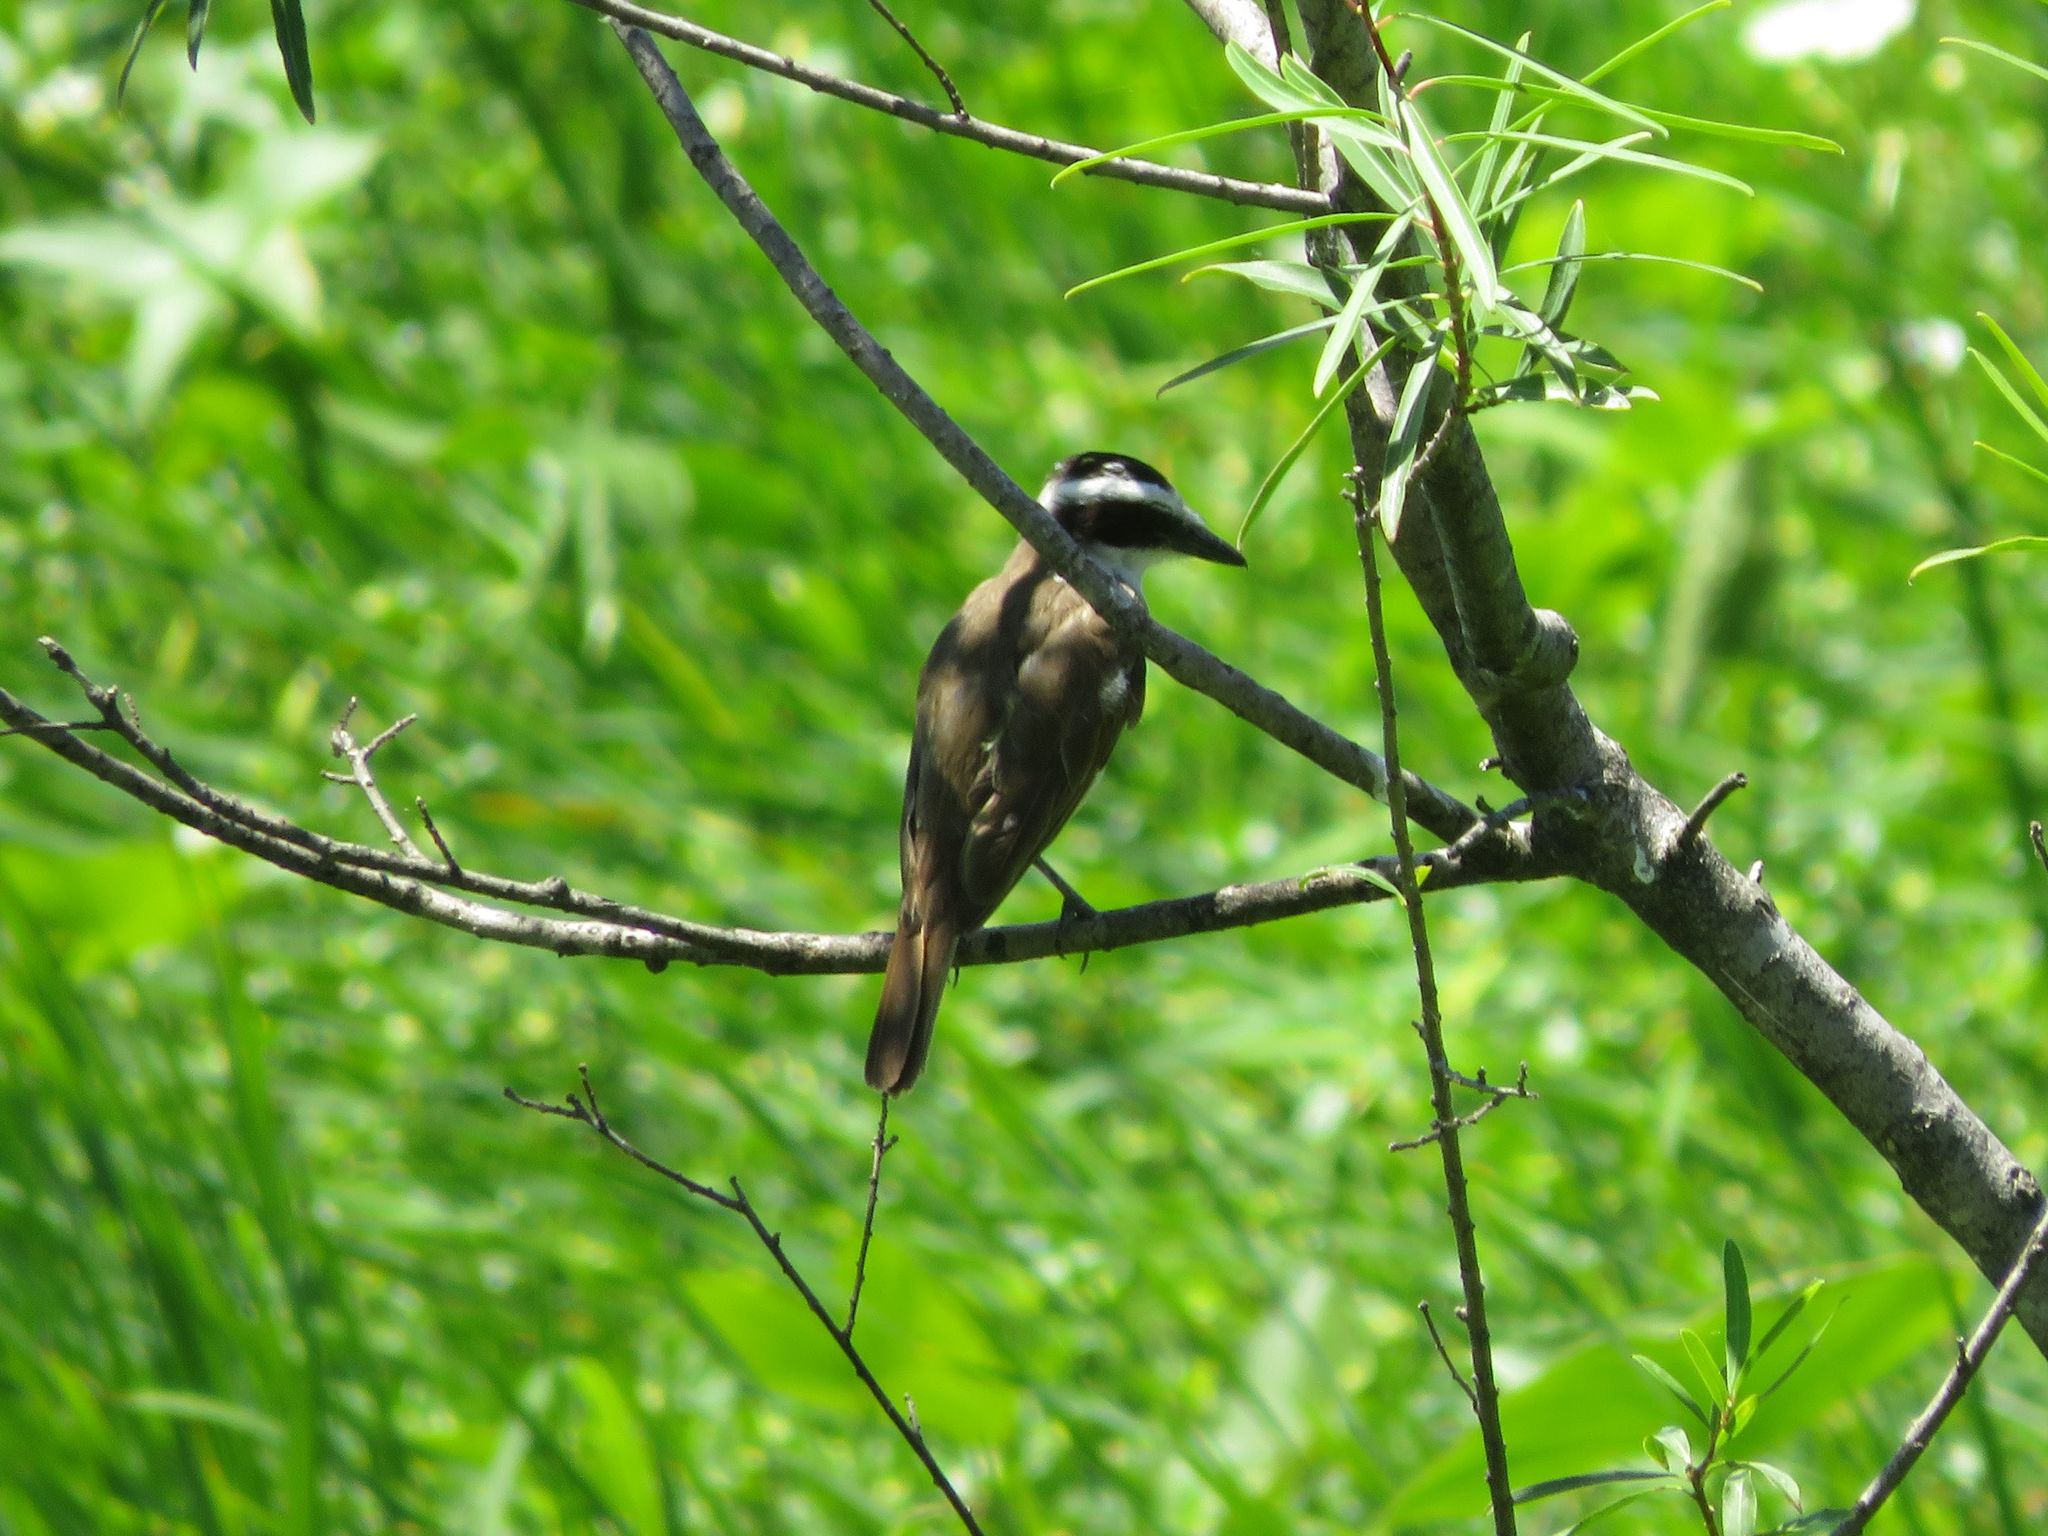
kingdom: Animalia
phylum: Chordata
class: Aves
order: Passeriformes
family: Tyrannidae
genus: Pitangus
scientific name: Pitangus sulphuratus
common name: Great kiskadee
